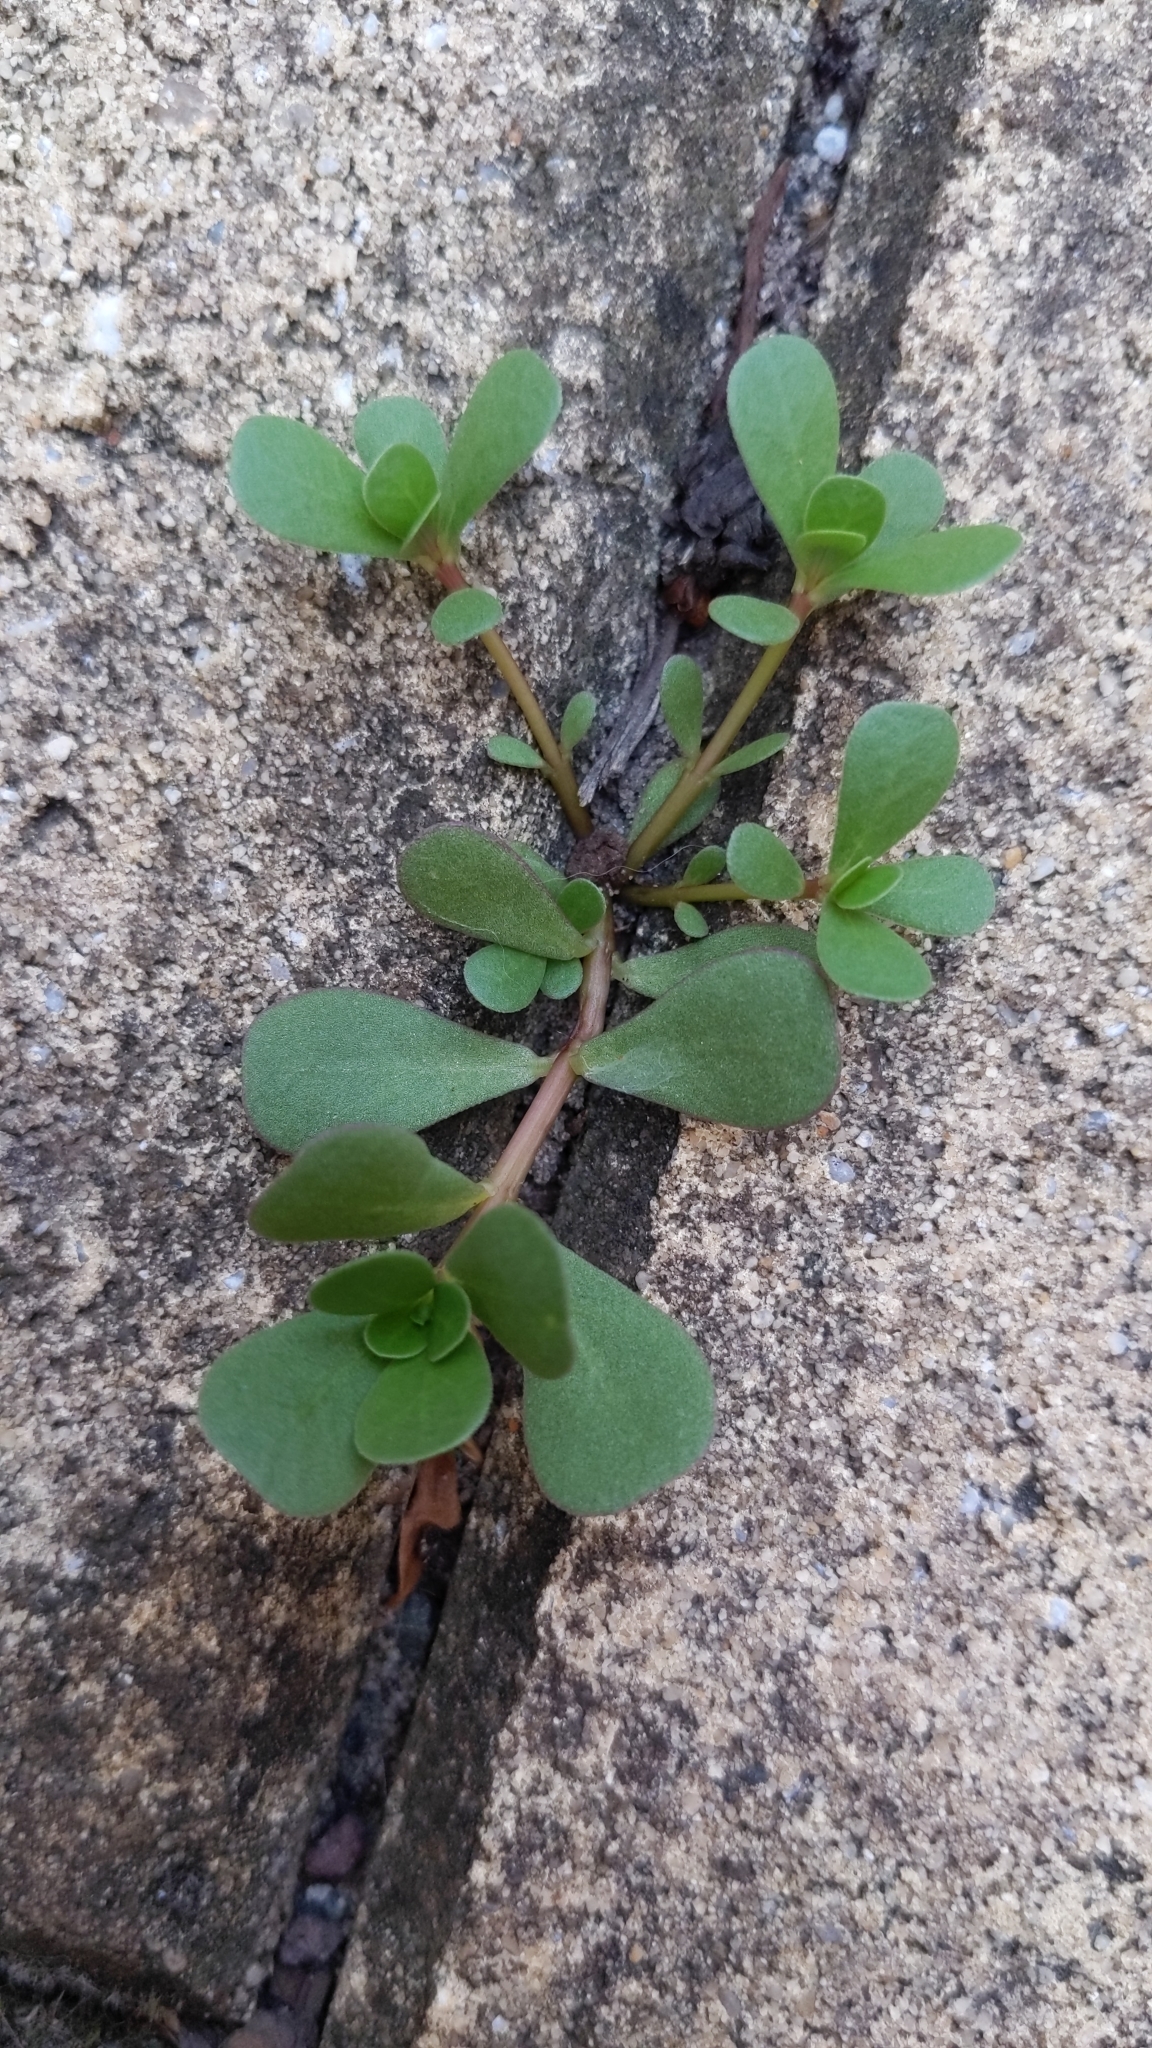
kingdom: Plantae
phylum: Tracheophyta
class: Magnoliopsida
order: Caryophyllales
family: Portulacaceae
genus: Portulaca
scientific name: Portulaca oleracea
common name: Common purslane
